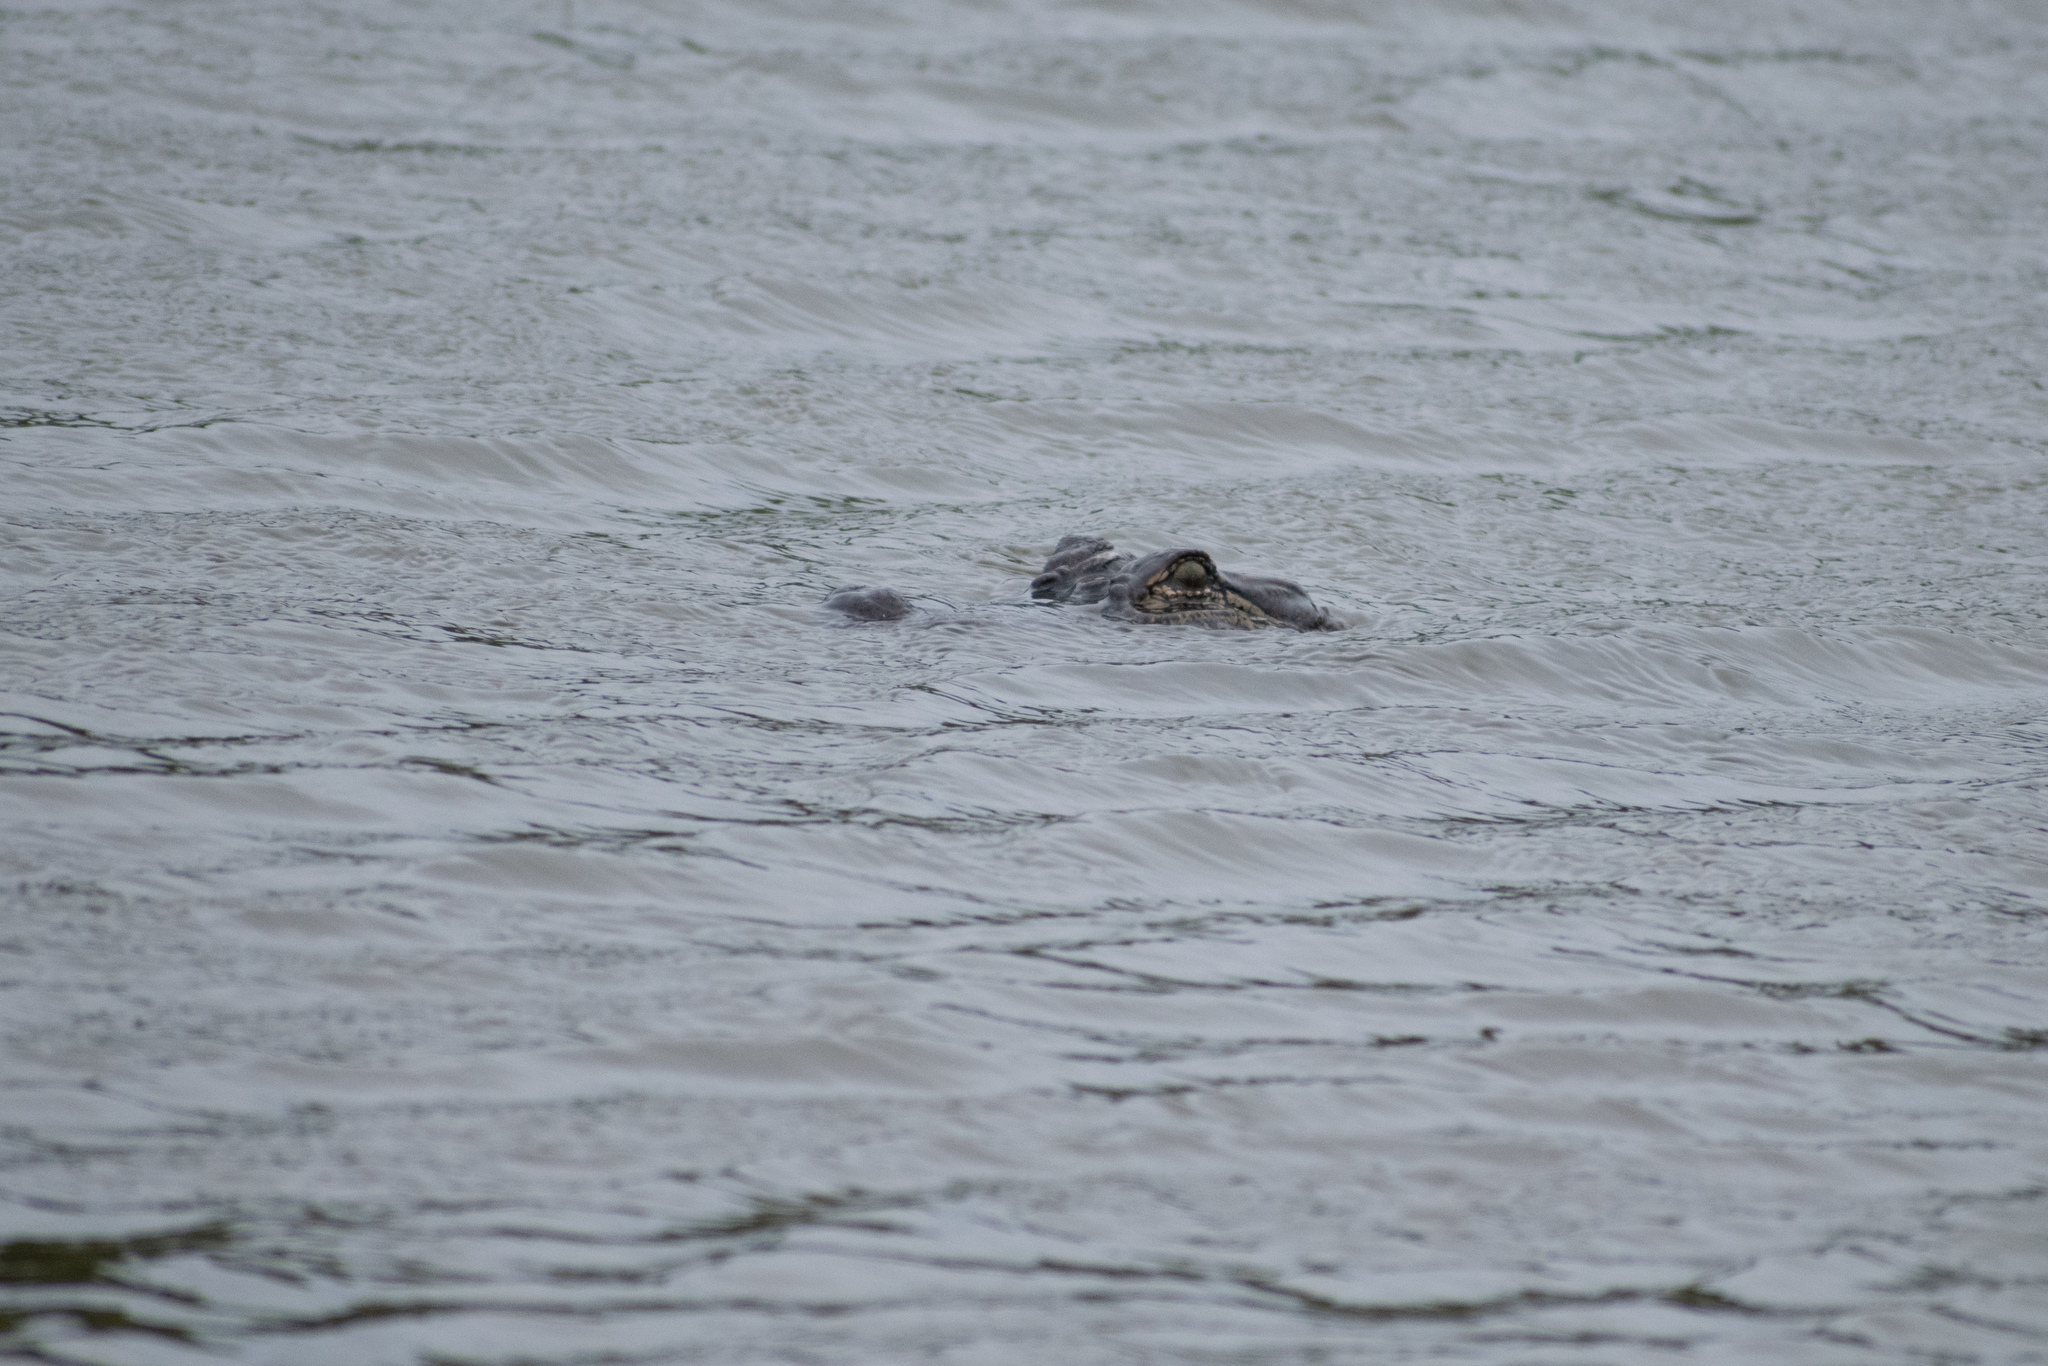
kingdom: Animalia
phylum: Chordata
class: Crocodylia
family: Alligatoridae
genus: Alligator
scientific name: Alligator mississippiensis
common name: American alligator
